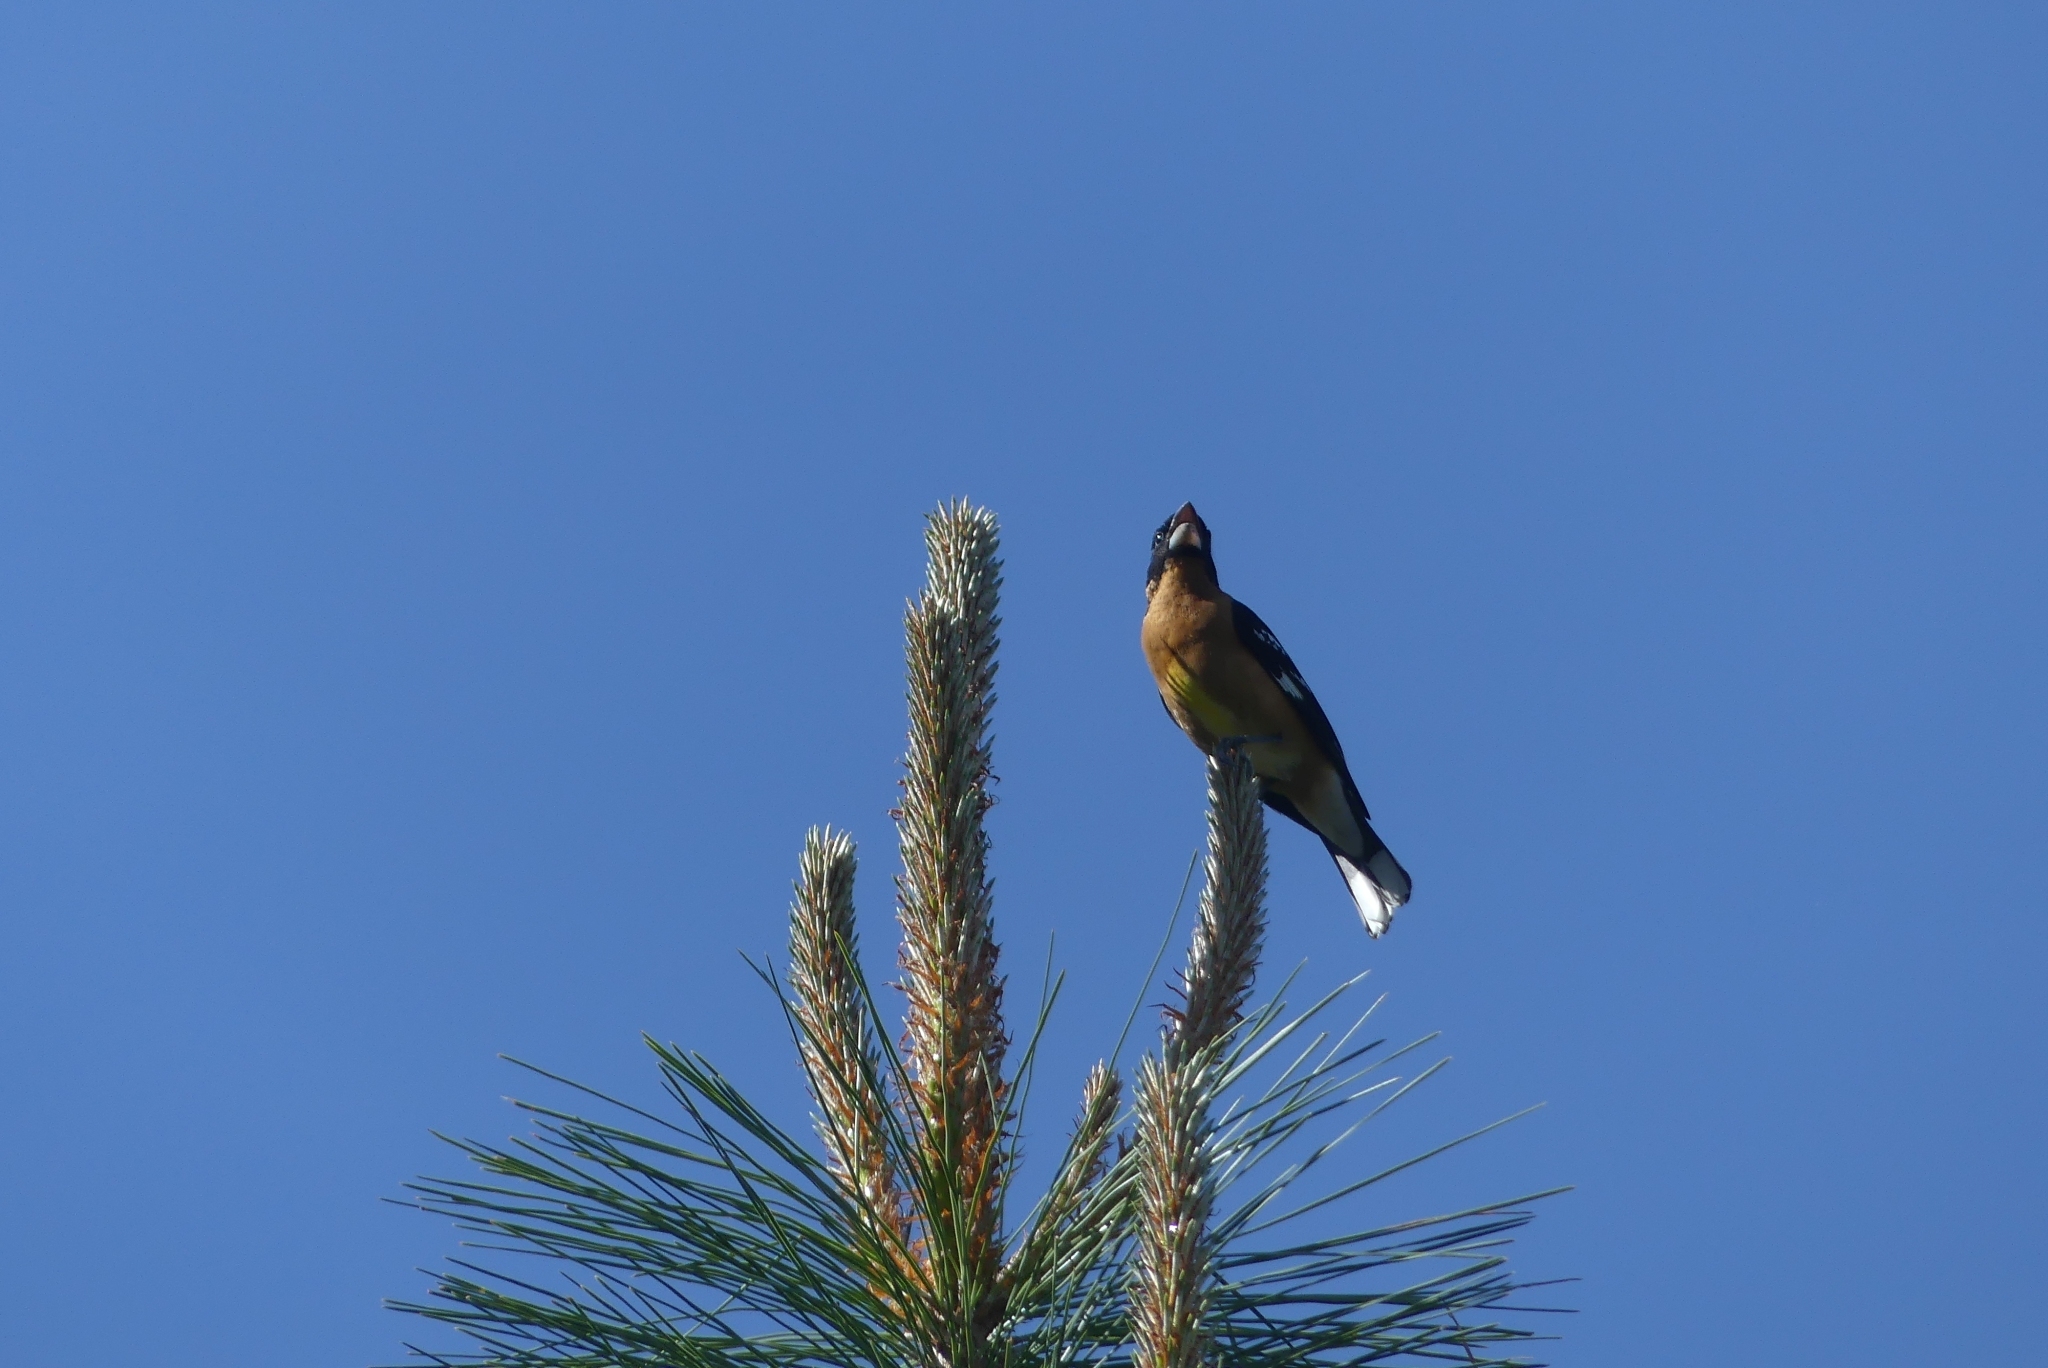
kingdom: Animalia
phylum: Chordata
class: Aves
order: Passeriformes
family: Cardinalidae
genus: Pheucticus
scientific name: Pheucticus melanocephalus
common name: Black-headed grosbeak
